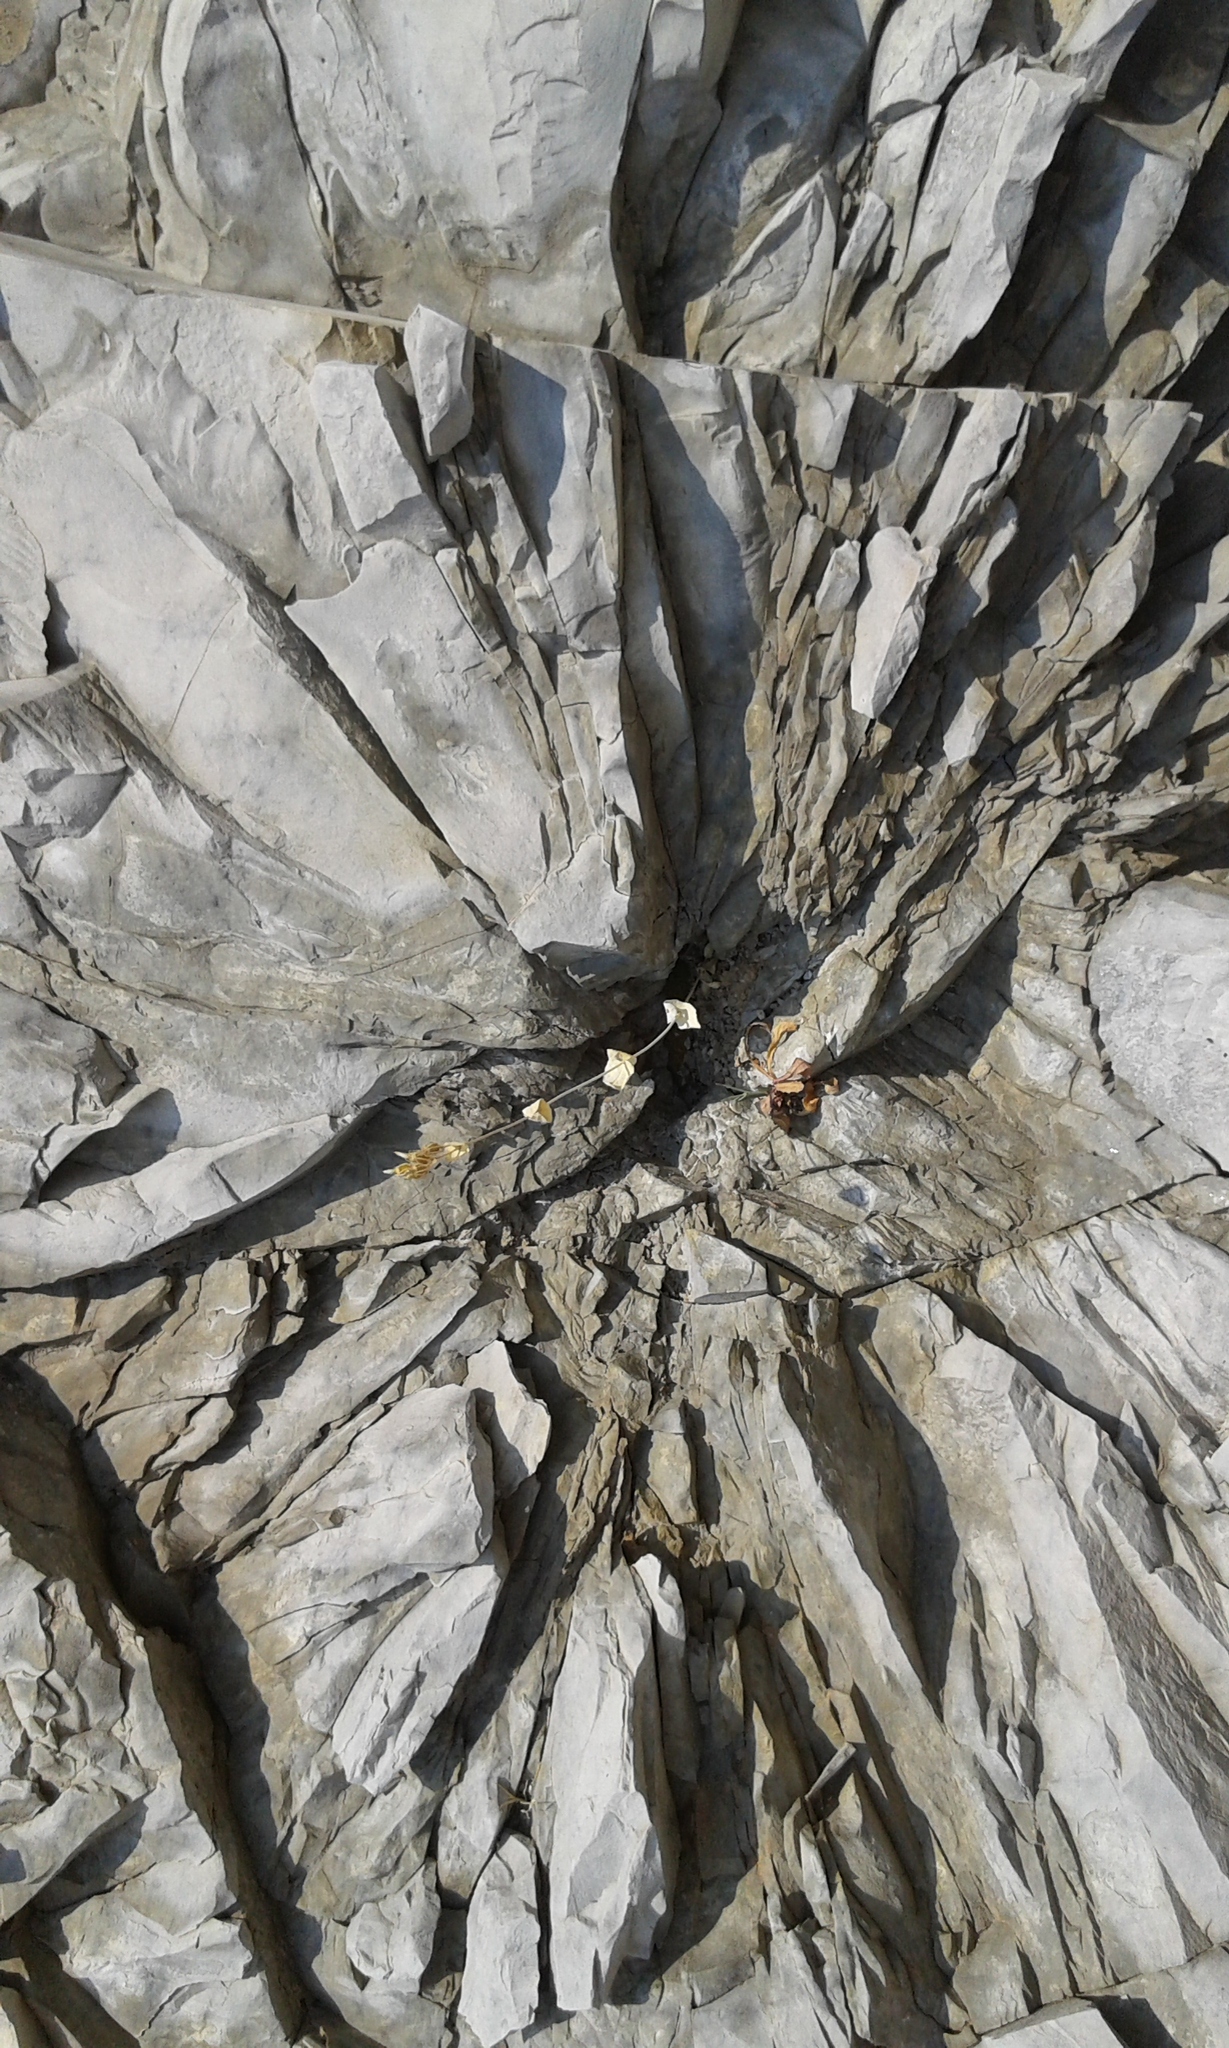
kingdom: Plantae
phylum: Tracheophyta
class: Magnoliopsida
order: Gentianales
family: Gentianaceae
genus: Blackstonia
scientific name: Blackstonia perfoliata
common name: Yellow-wort
